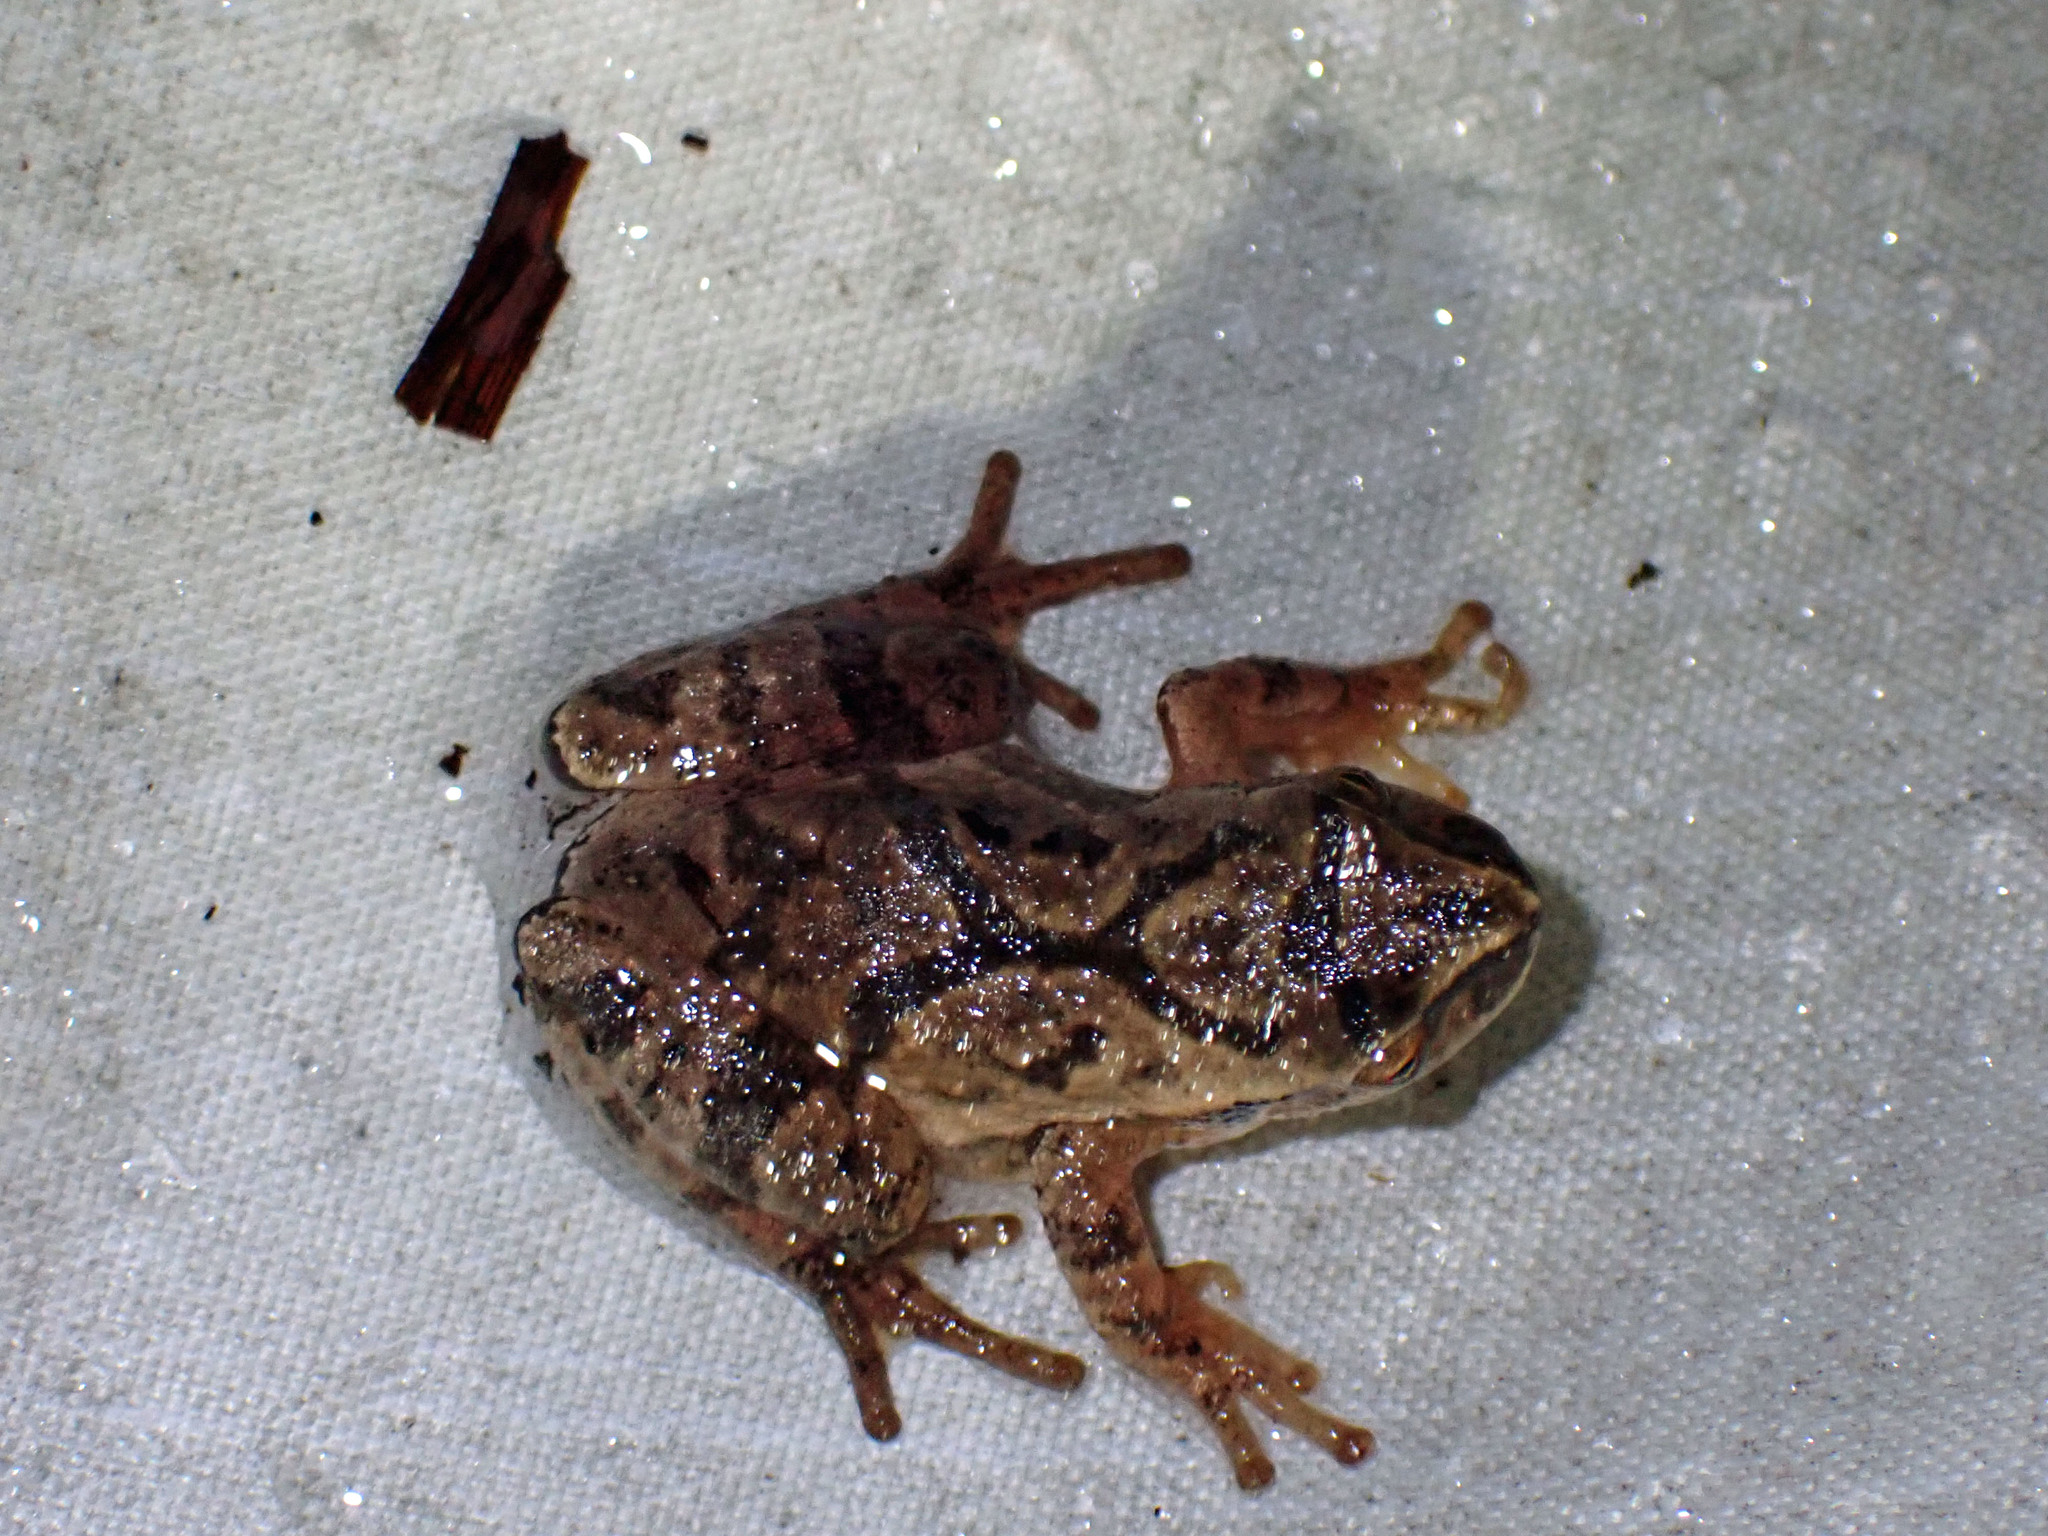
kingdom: Animalia
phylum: Chordata
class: Amphibia
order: Anura
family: Hylidae
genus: Pseudacris
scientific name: Pseudacris crucifer
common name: Spring peeper
